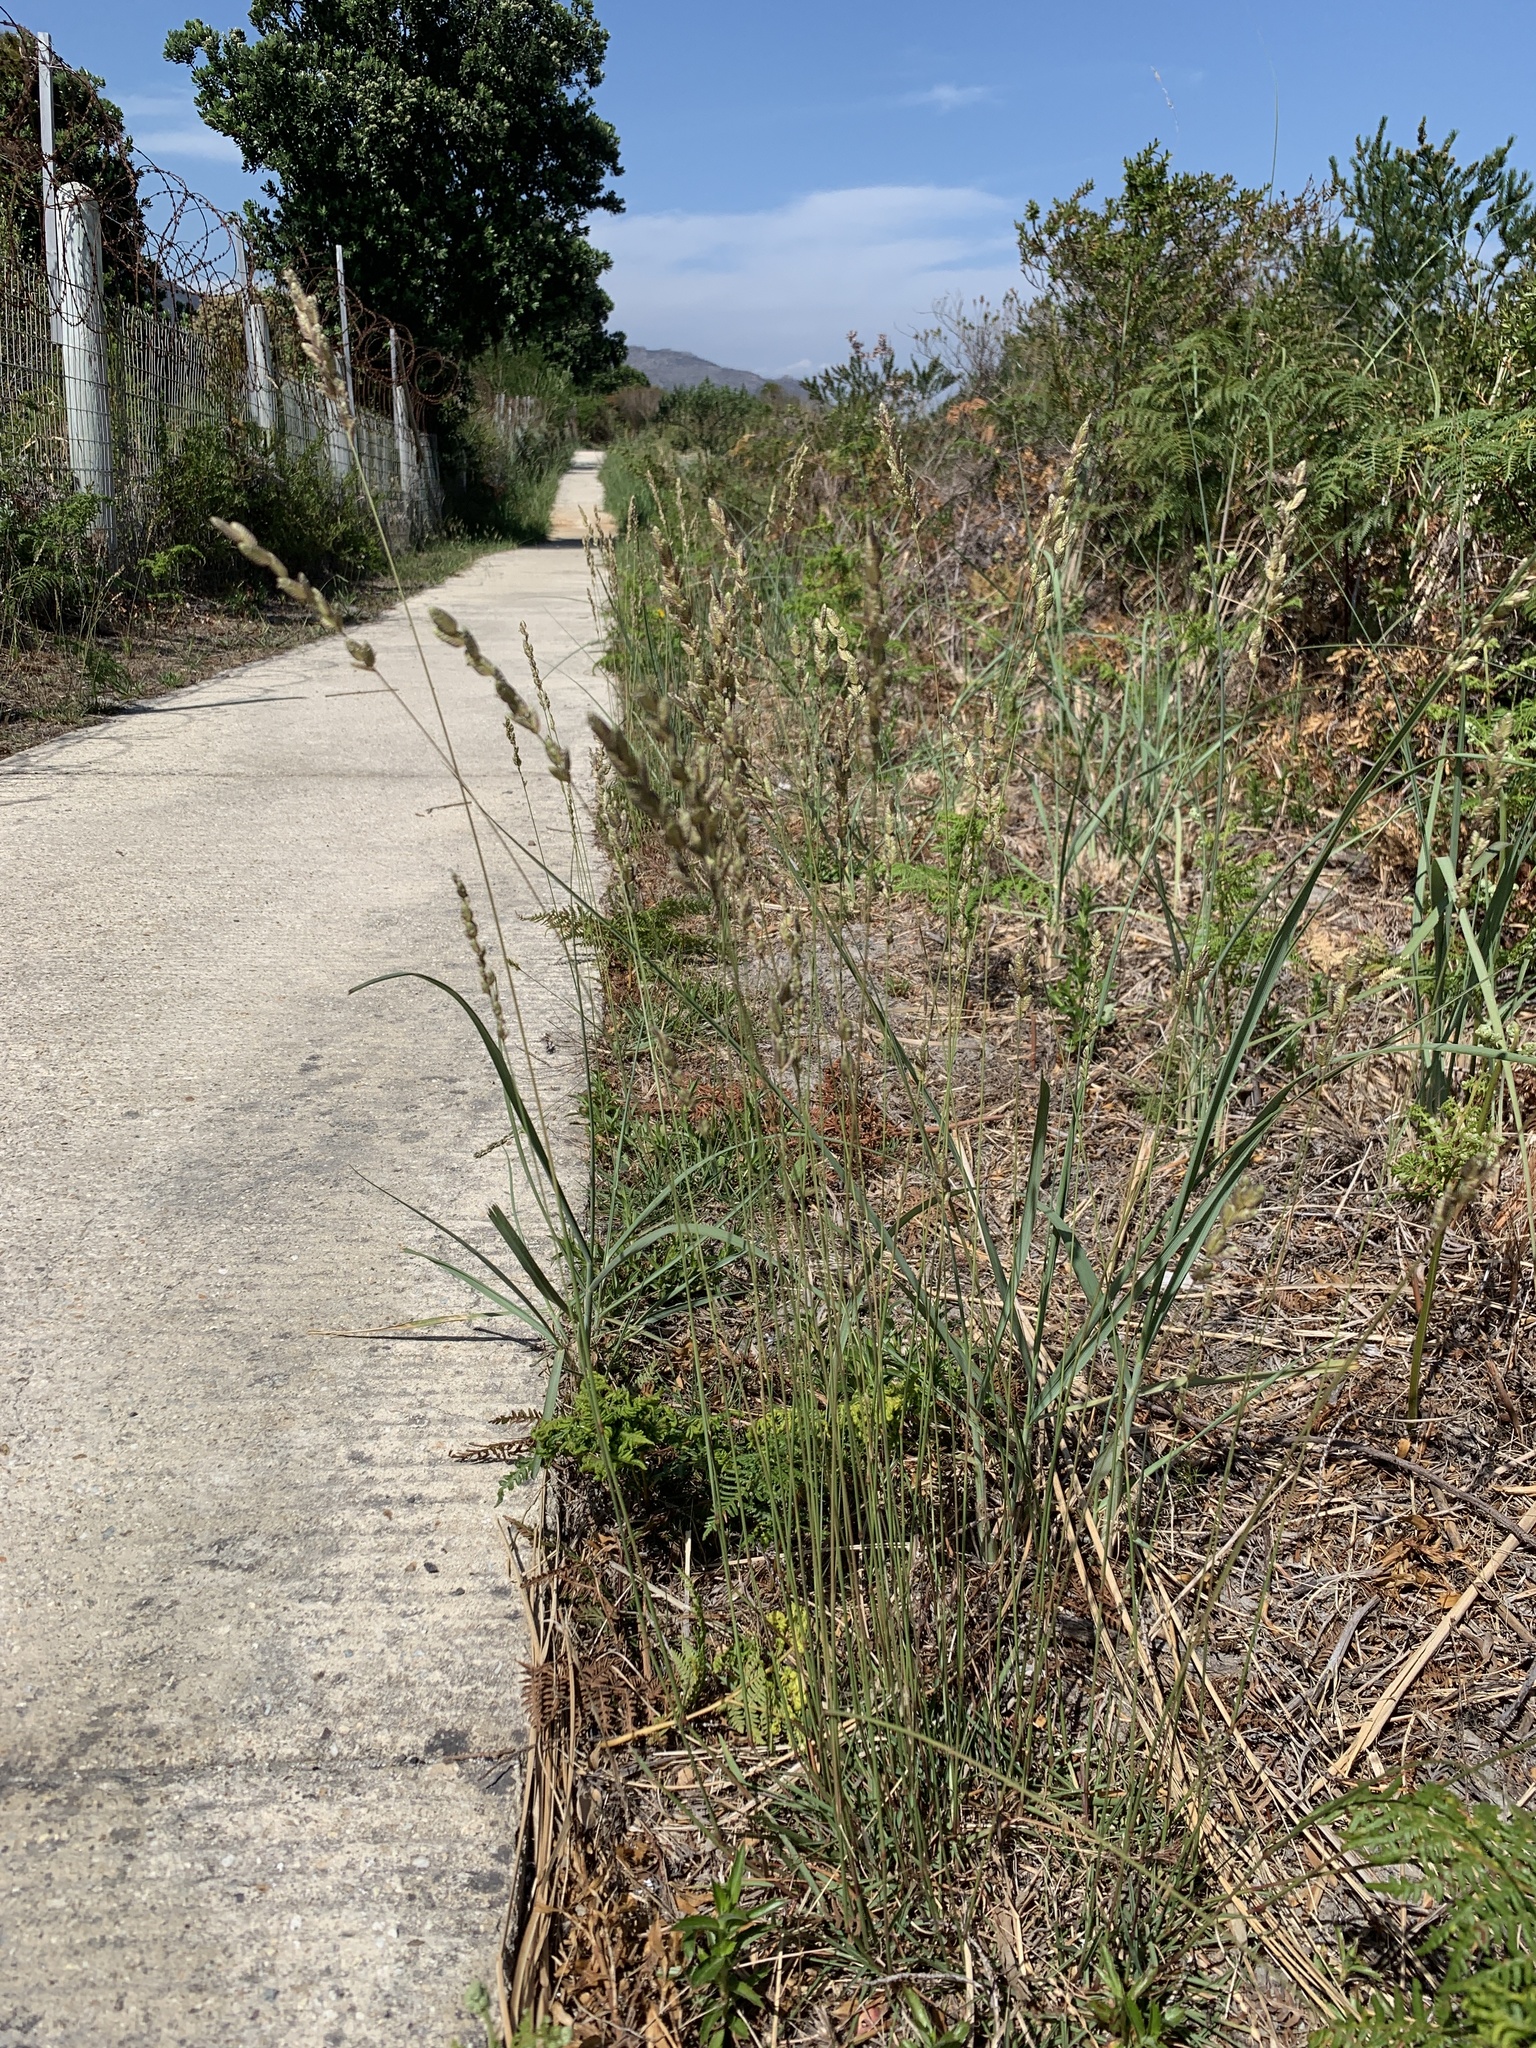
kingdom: Plantae
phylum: Tracheophyta
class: Liliopsida
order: Poales
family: Poaceae
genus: Eragrostis
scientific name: Eragrostis capensis
